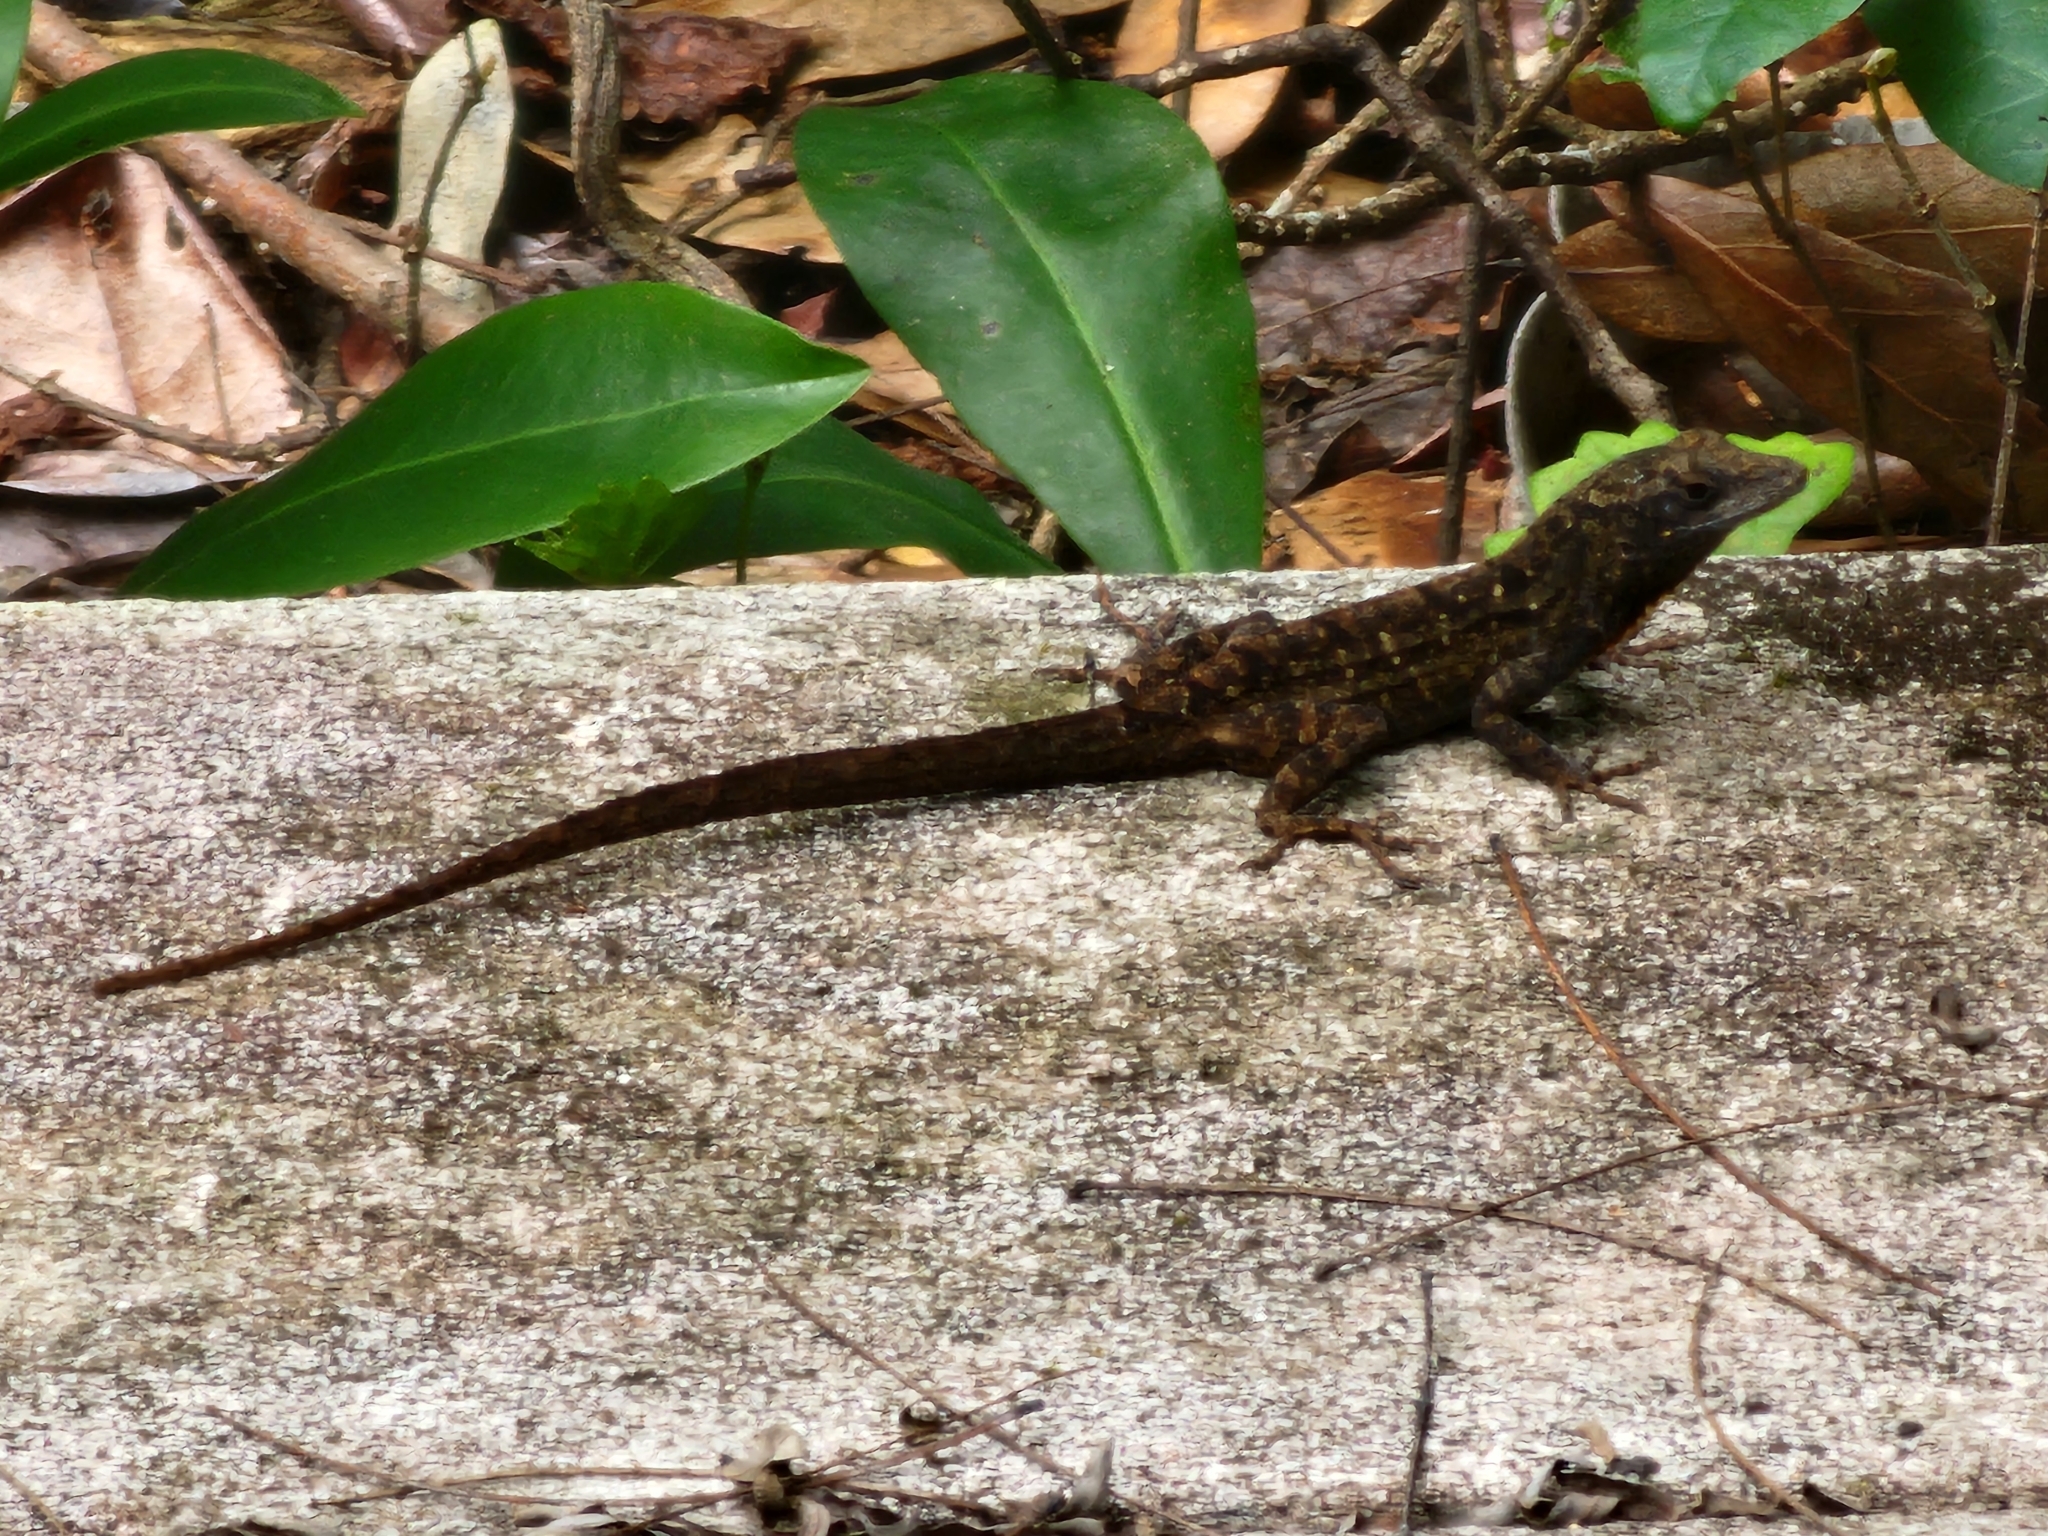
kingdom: Animalia
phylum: Chordata
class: Squamata
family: Dactyloidae
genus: Anolis
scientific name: Anolis sagrei
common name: Brown anole
